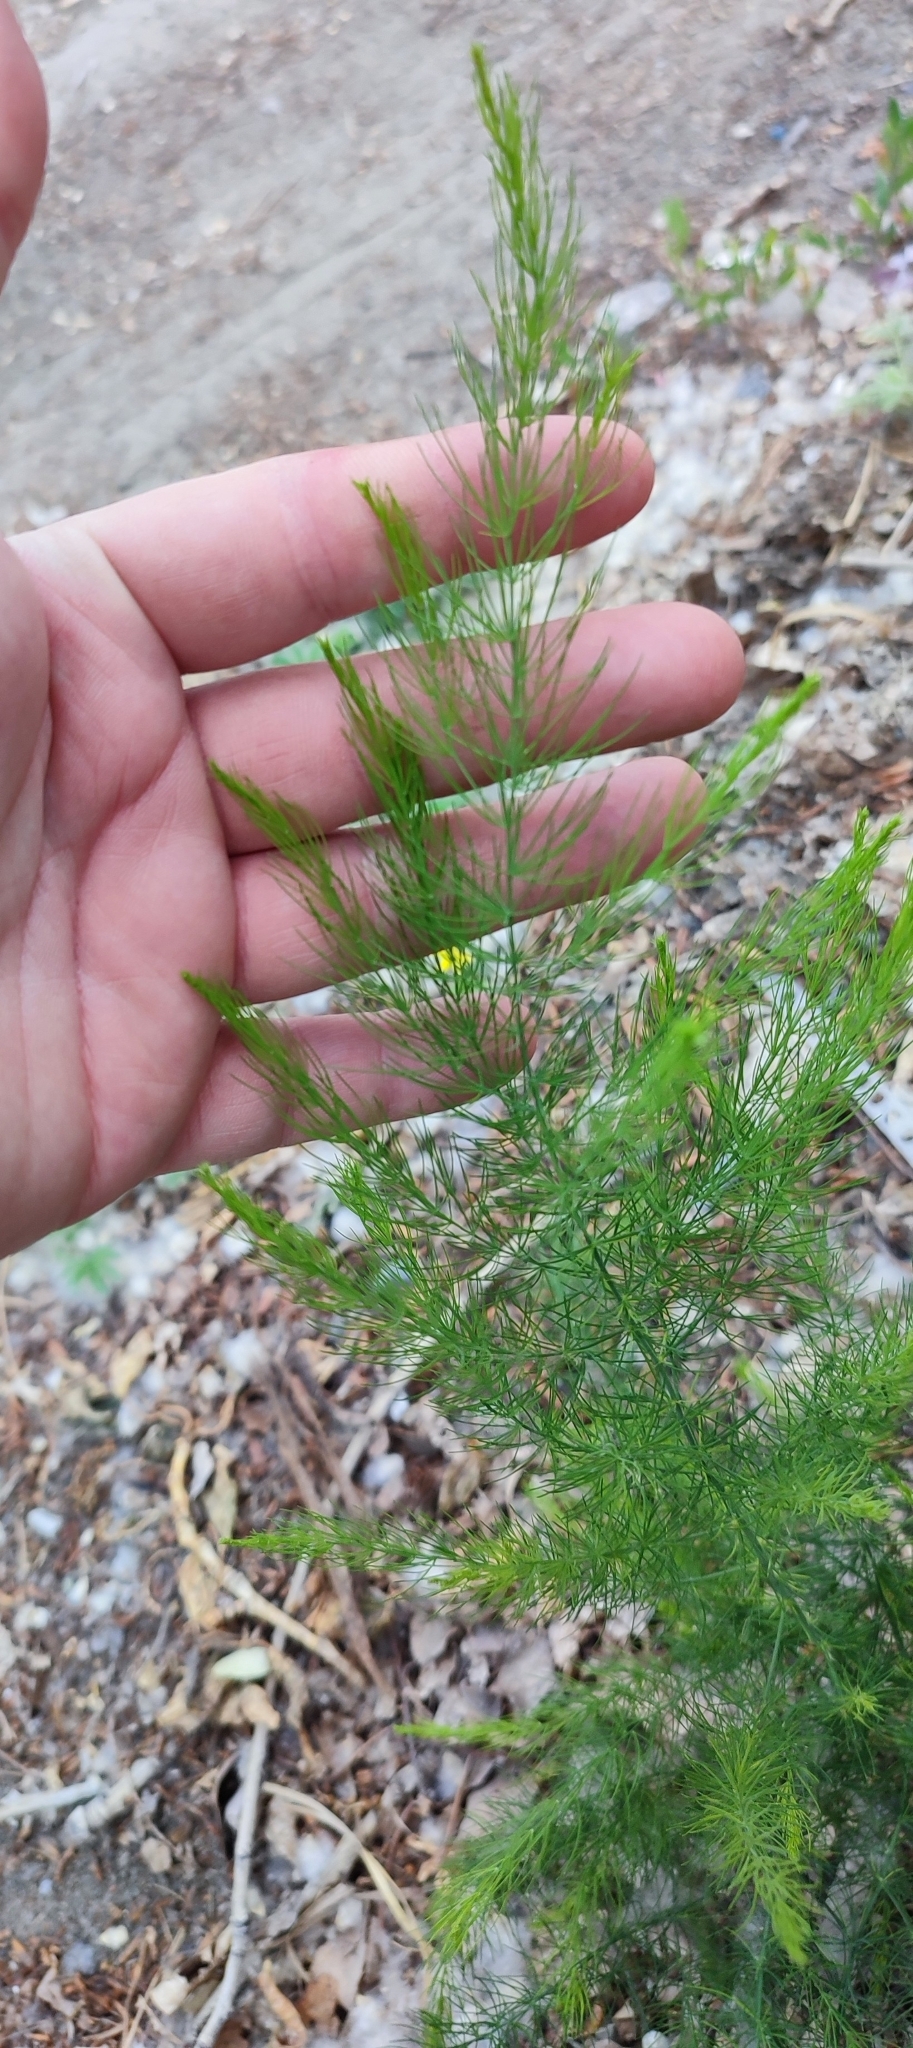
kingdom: Plantae
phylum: Tracheophyta
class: Liliopsida
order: Asparagales
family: Asparagaceae
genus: Asparagus
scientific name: Asparagus officinalis
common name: Garden asparagus
